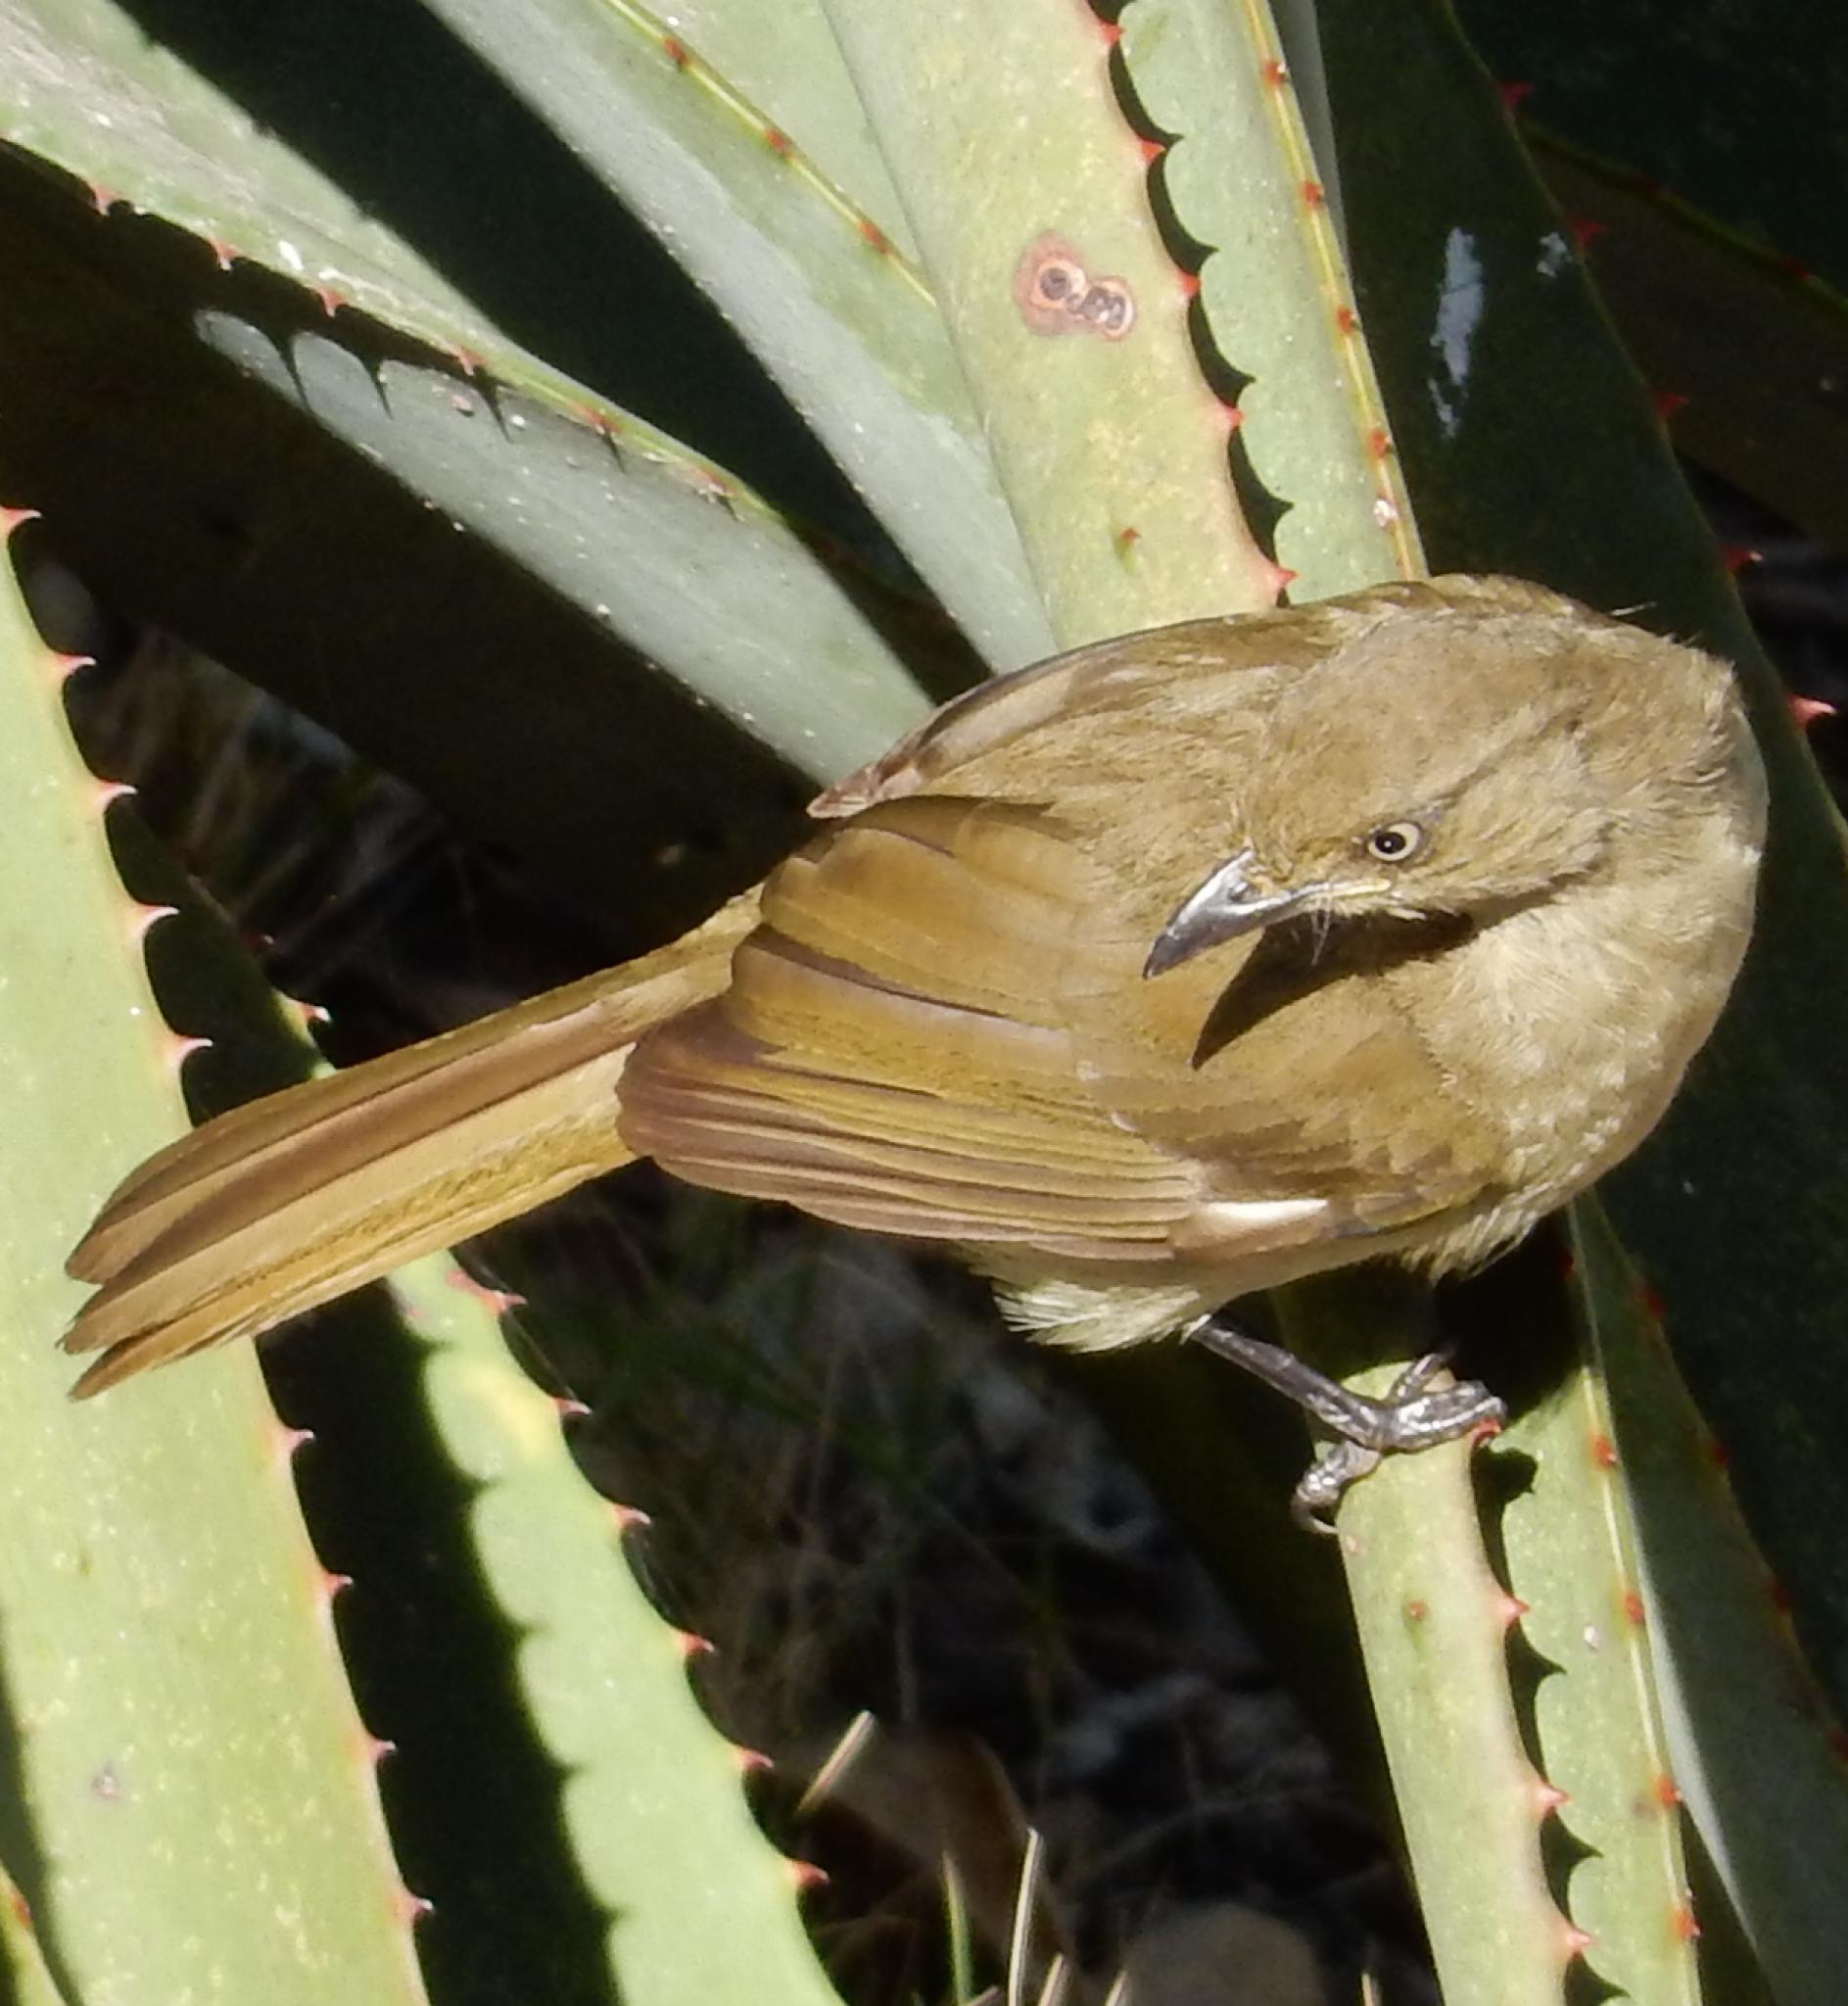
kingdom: Animalia
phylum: Chordata
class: Aves
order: Passeriformes
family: Pycnonotidae
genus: Andropadus
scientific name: Andropadus importunus
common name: Sombre greenbul
